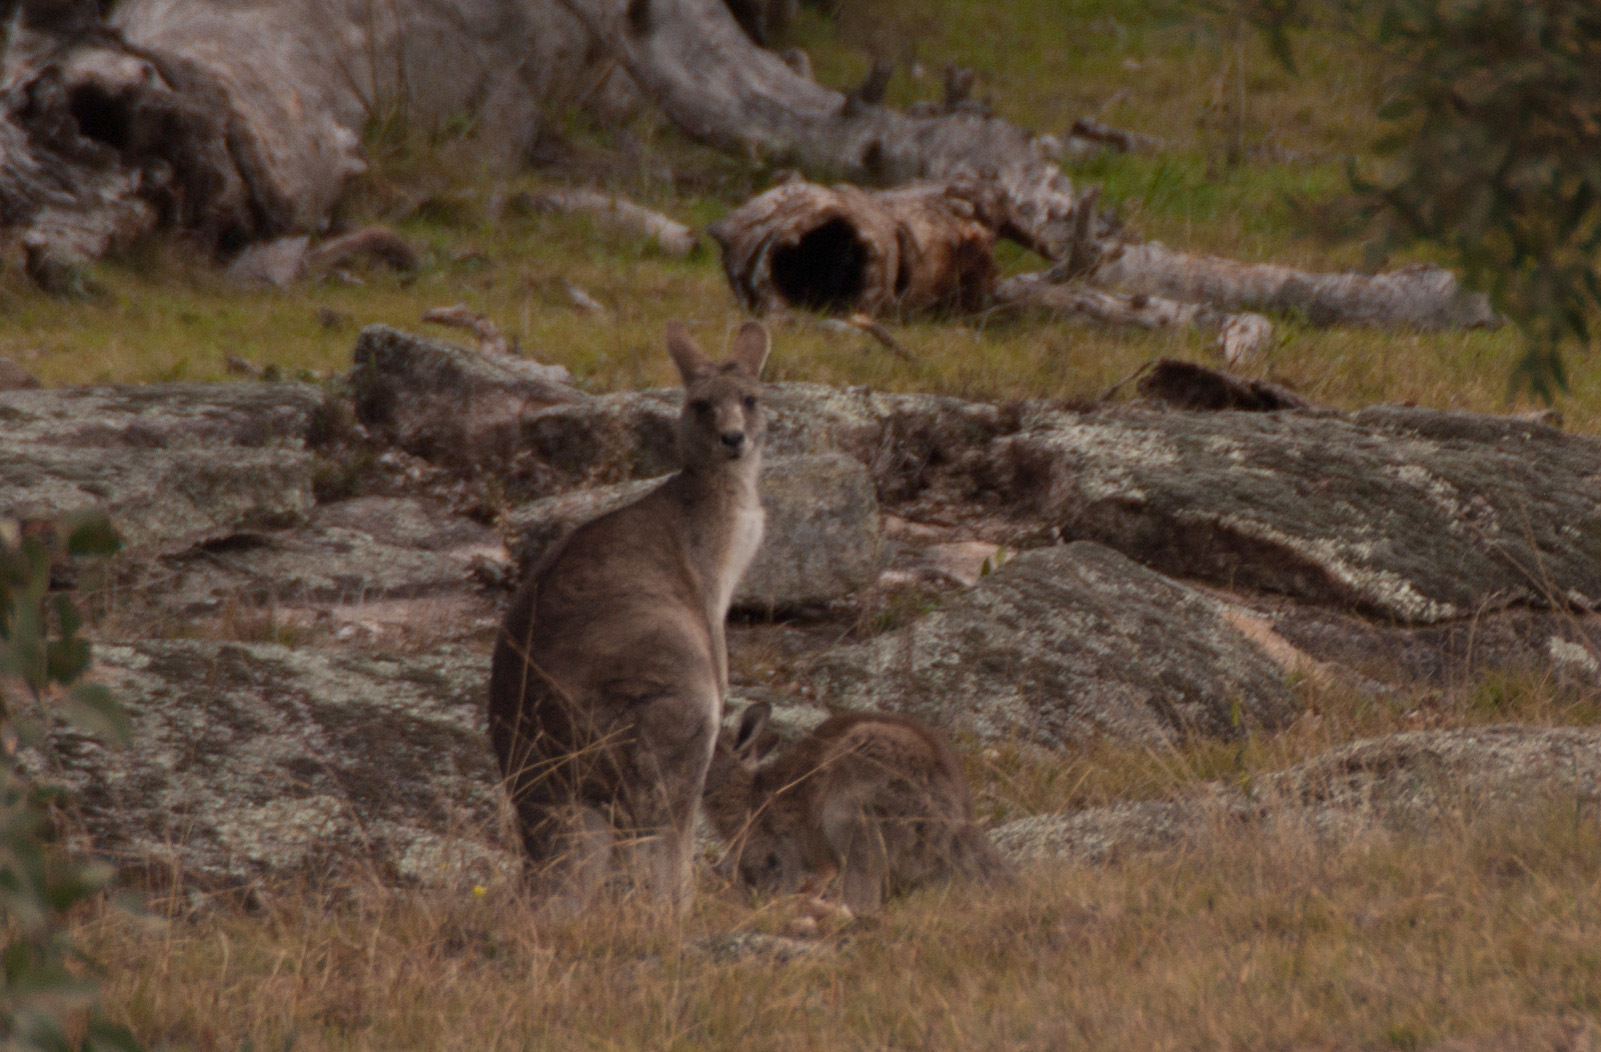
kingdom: Animalia
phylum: Chordata
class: Mammalia
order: Diprotodontia
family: Macropodidae
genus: Macropus
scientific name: Macropus giganteus
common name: Eastern grey kangaroo
